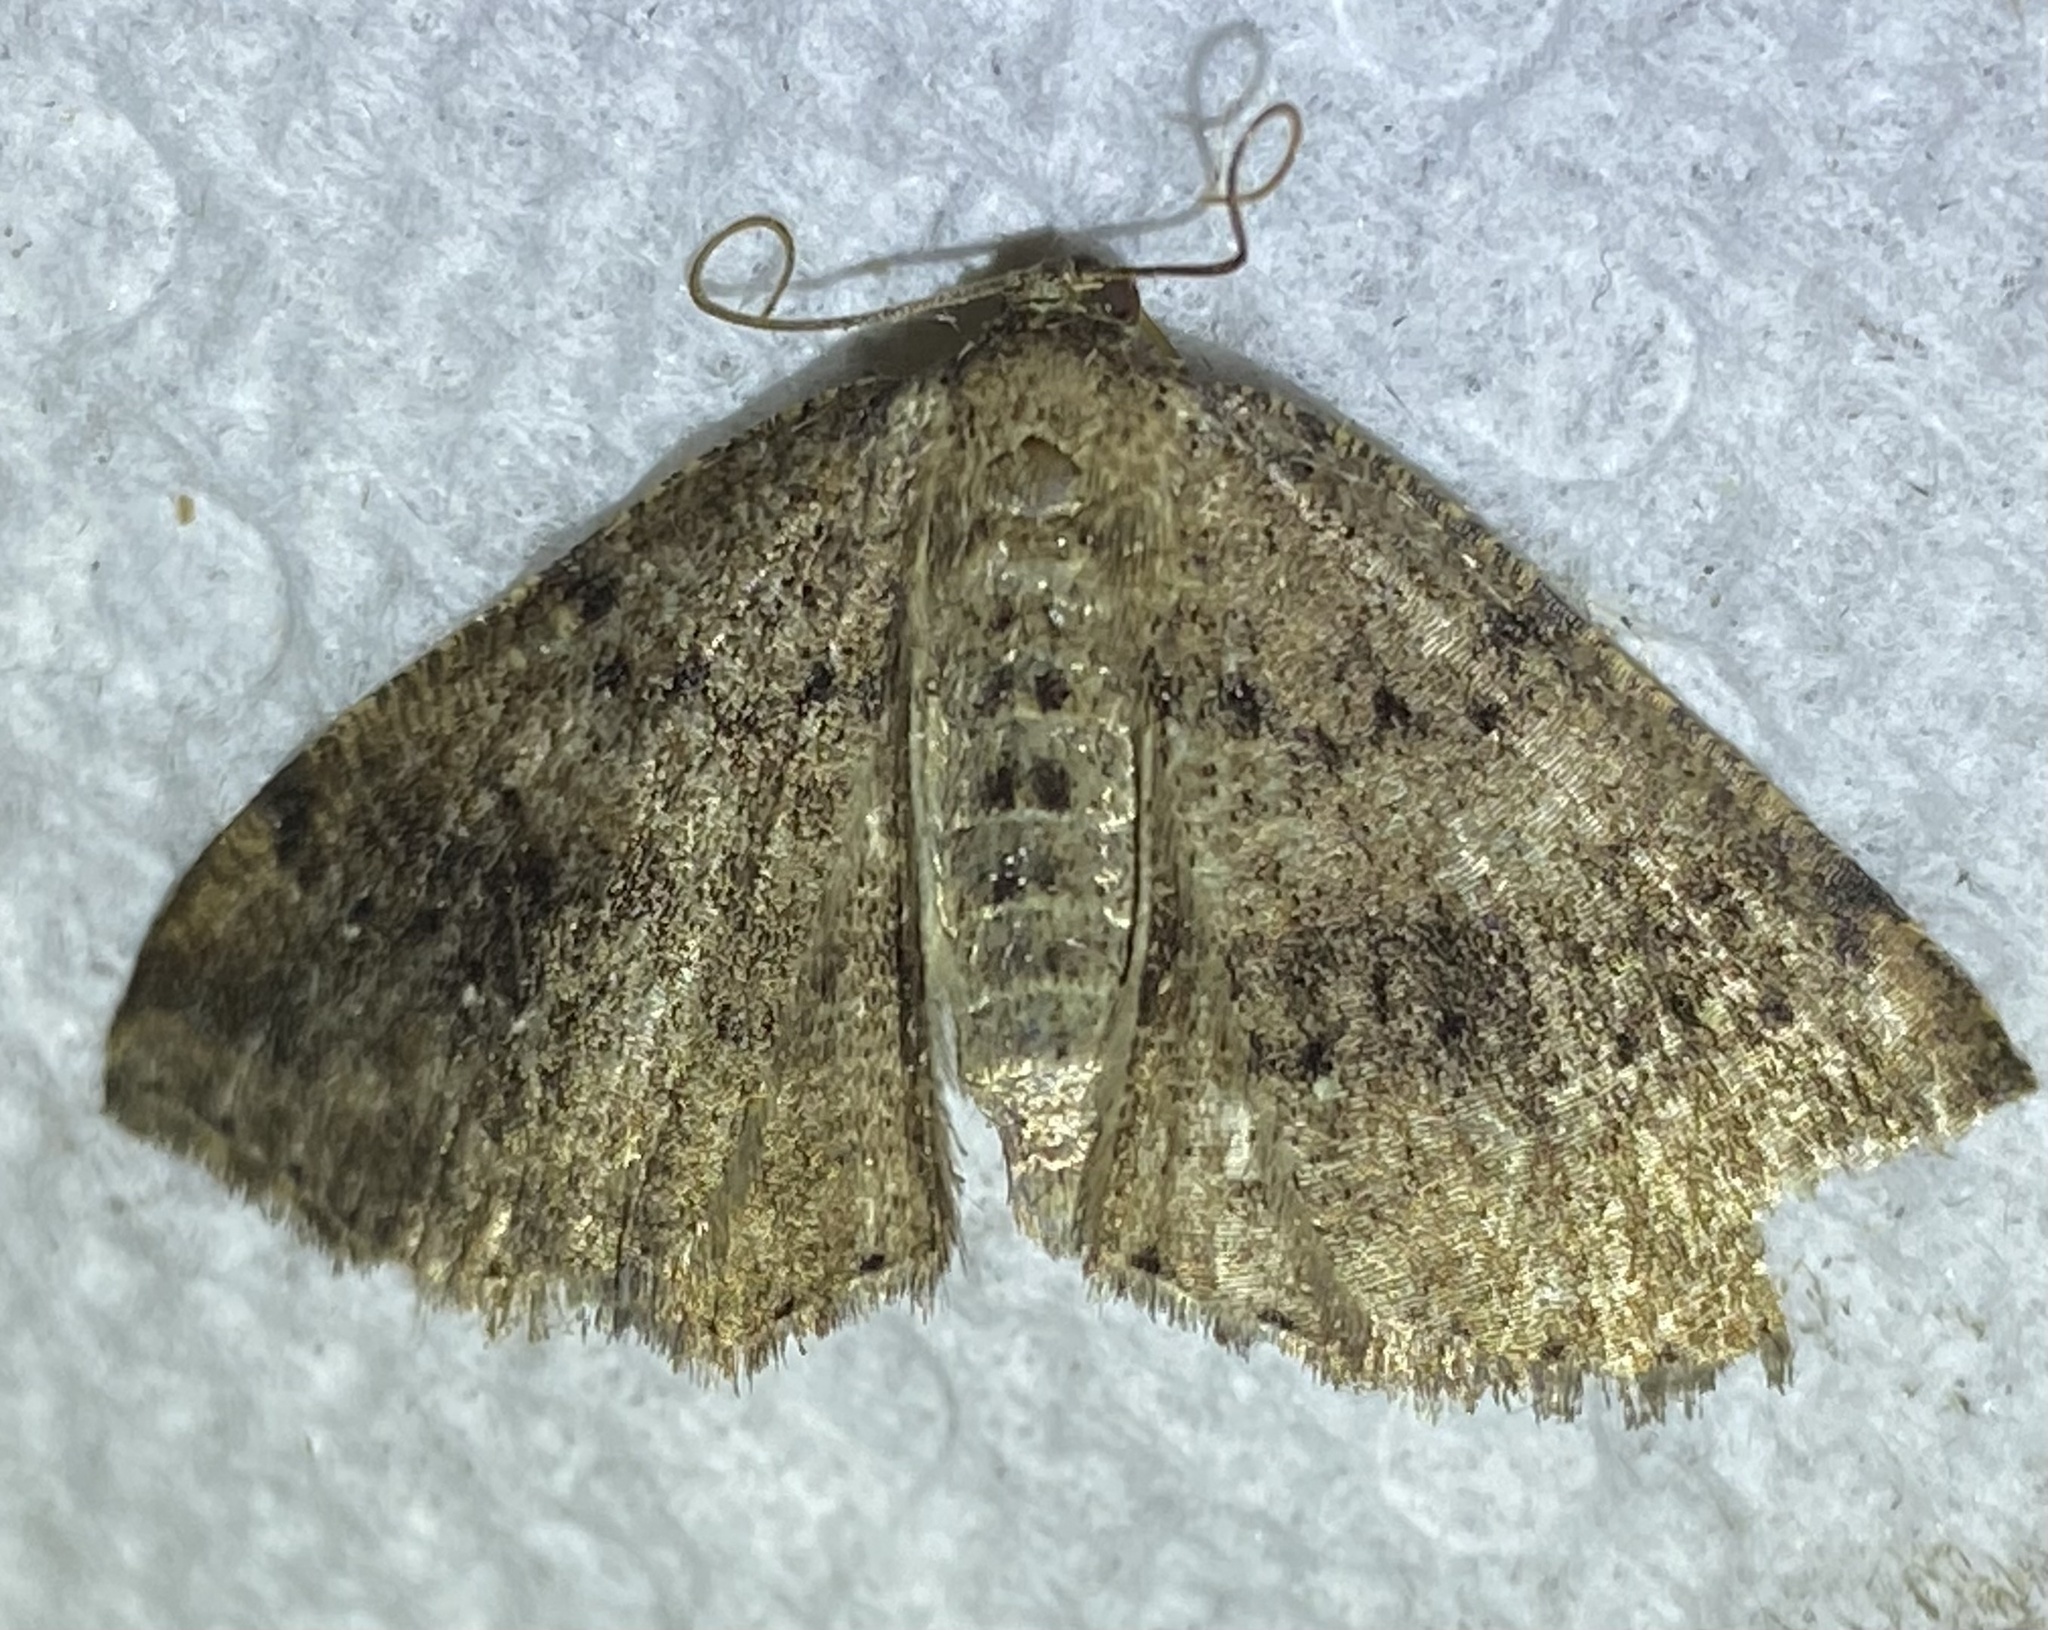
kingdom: Animalia
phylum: Arthropoda
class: Insecta
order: Lepidoptera
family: Geometridae
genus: Homochlodes
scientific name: Homochlodes fritillaria
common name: Pale homochlodes
